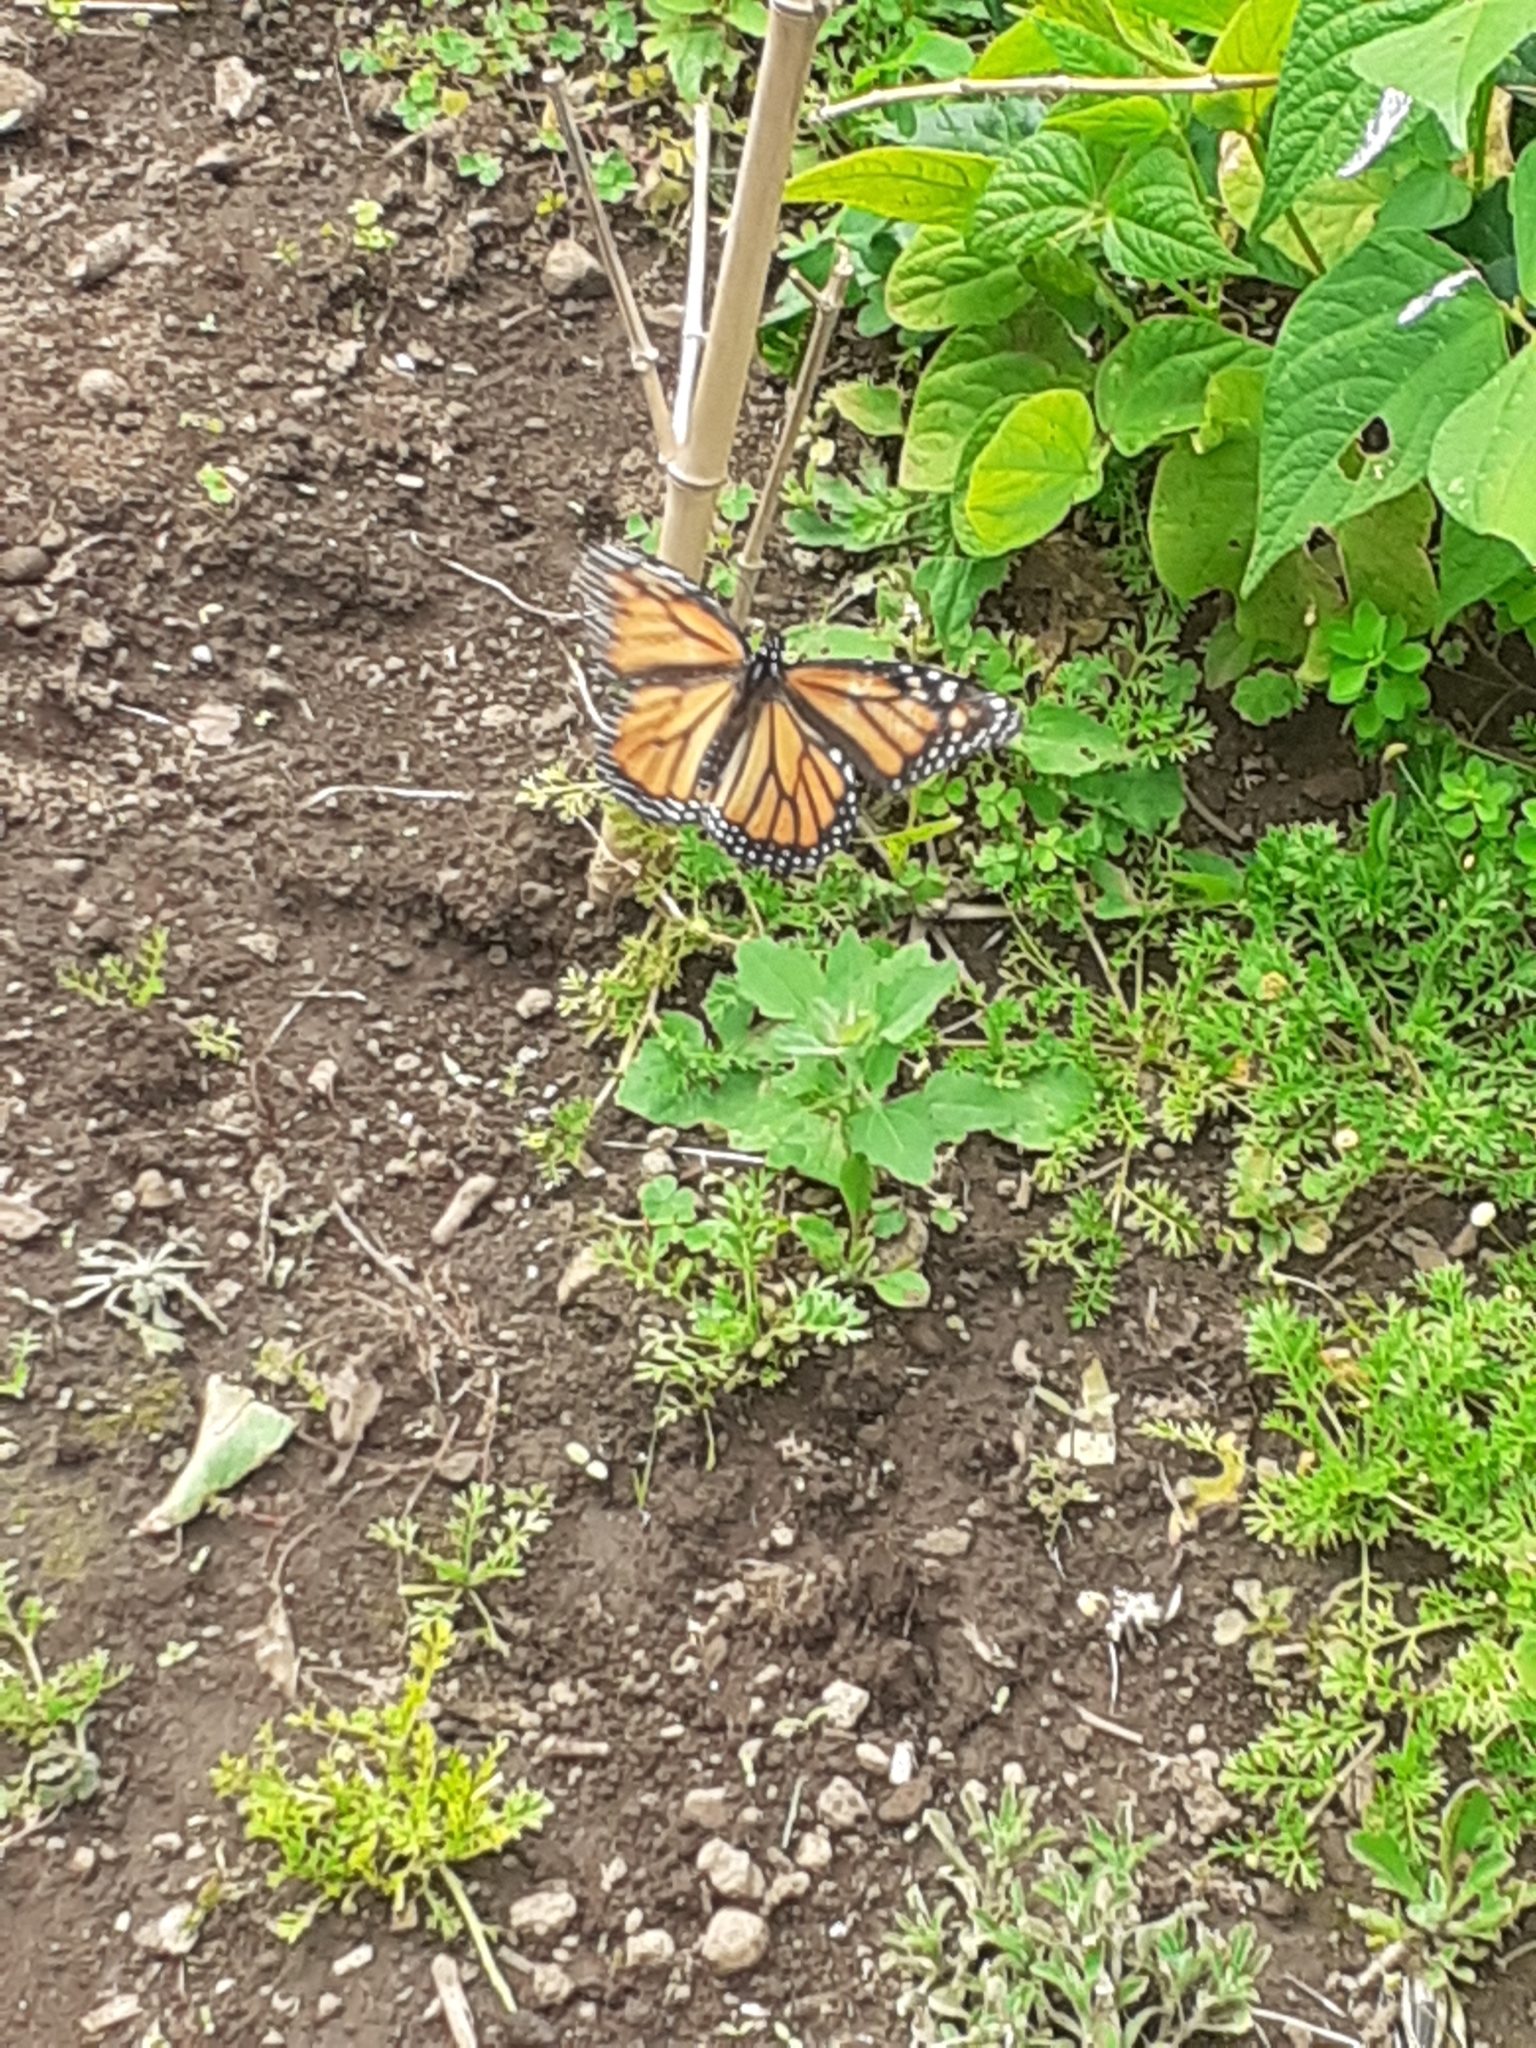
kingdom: Animalia
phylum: Arthropoda
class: Insecta
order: Lepidoptera
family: Nymphalidae
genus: Danaus
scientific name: Danaus plexippus
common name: Monarch
